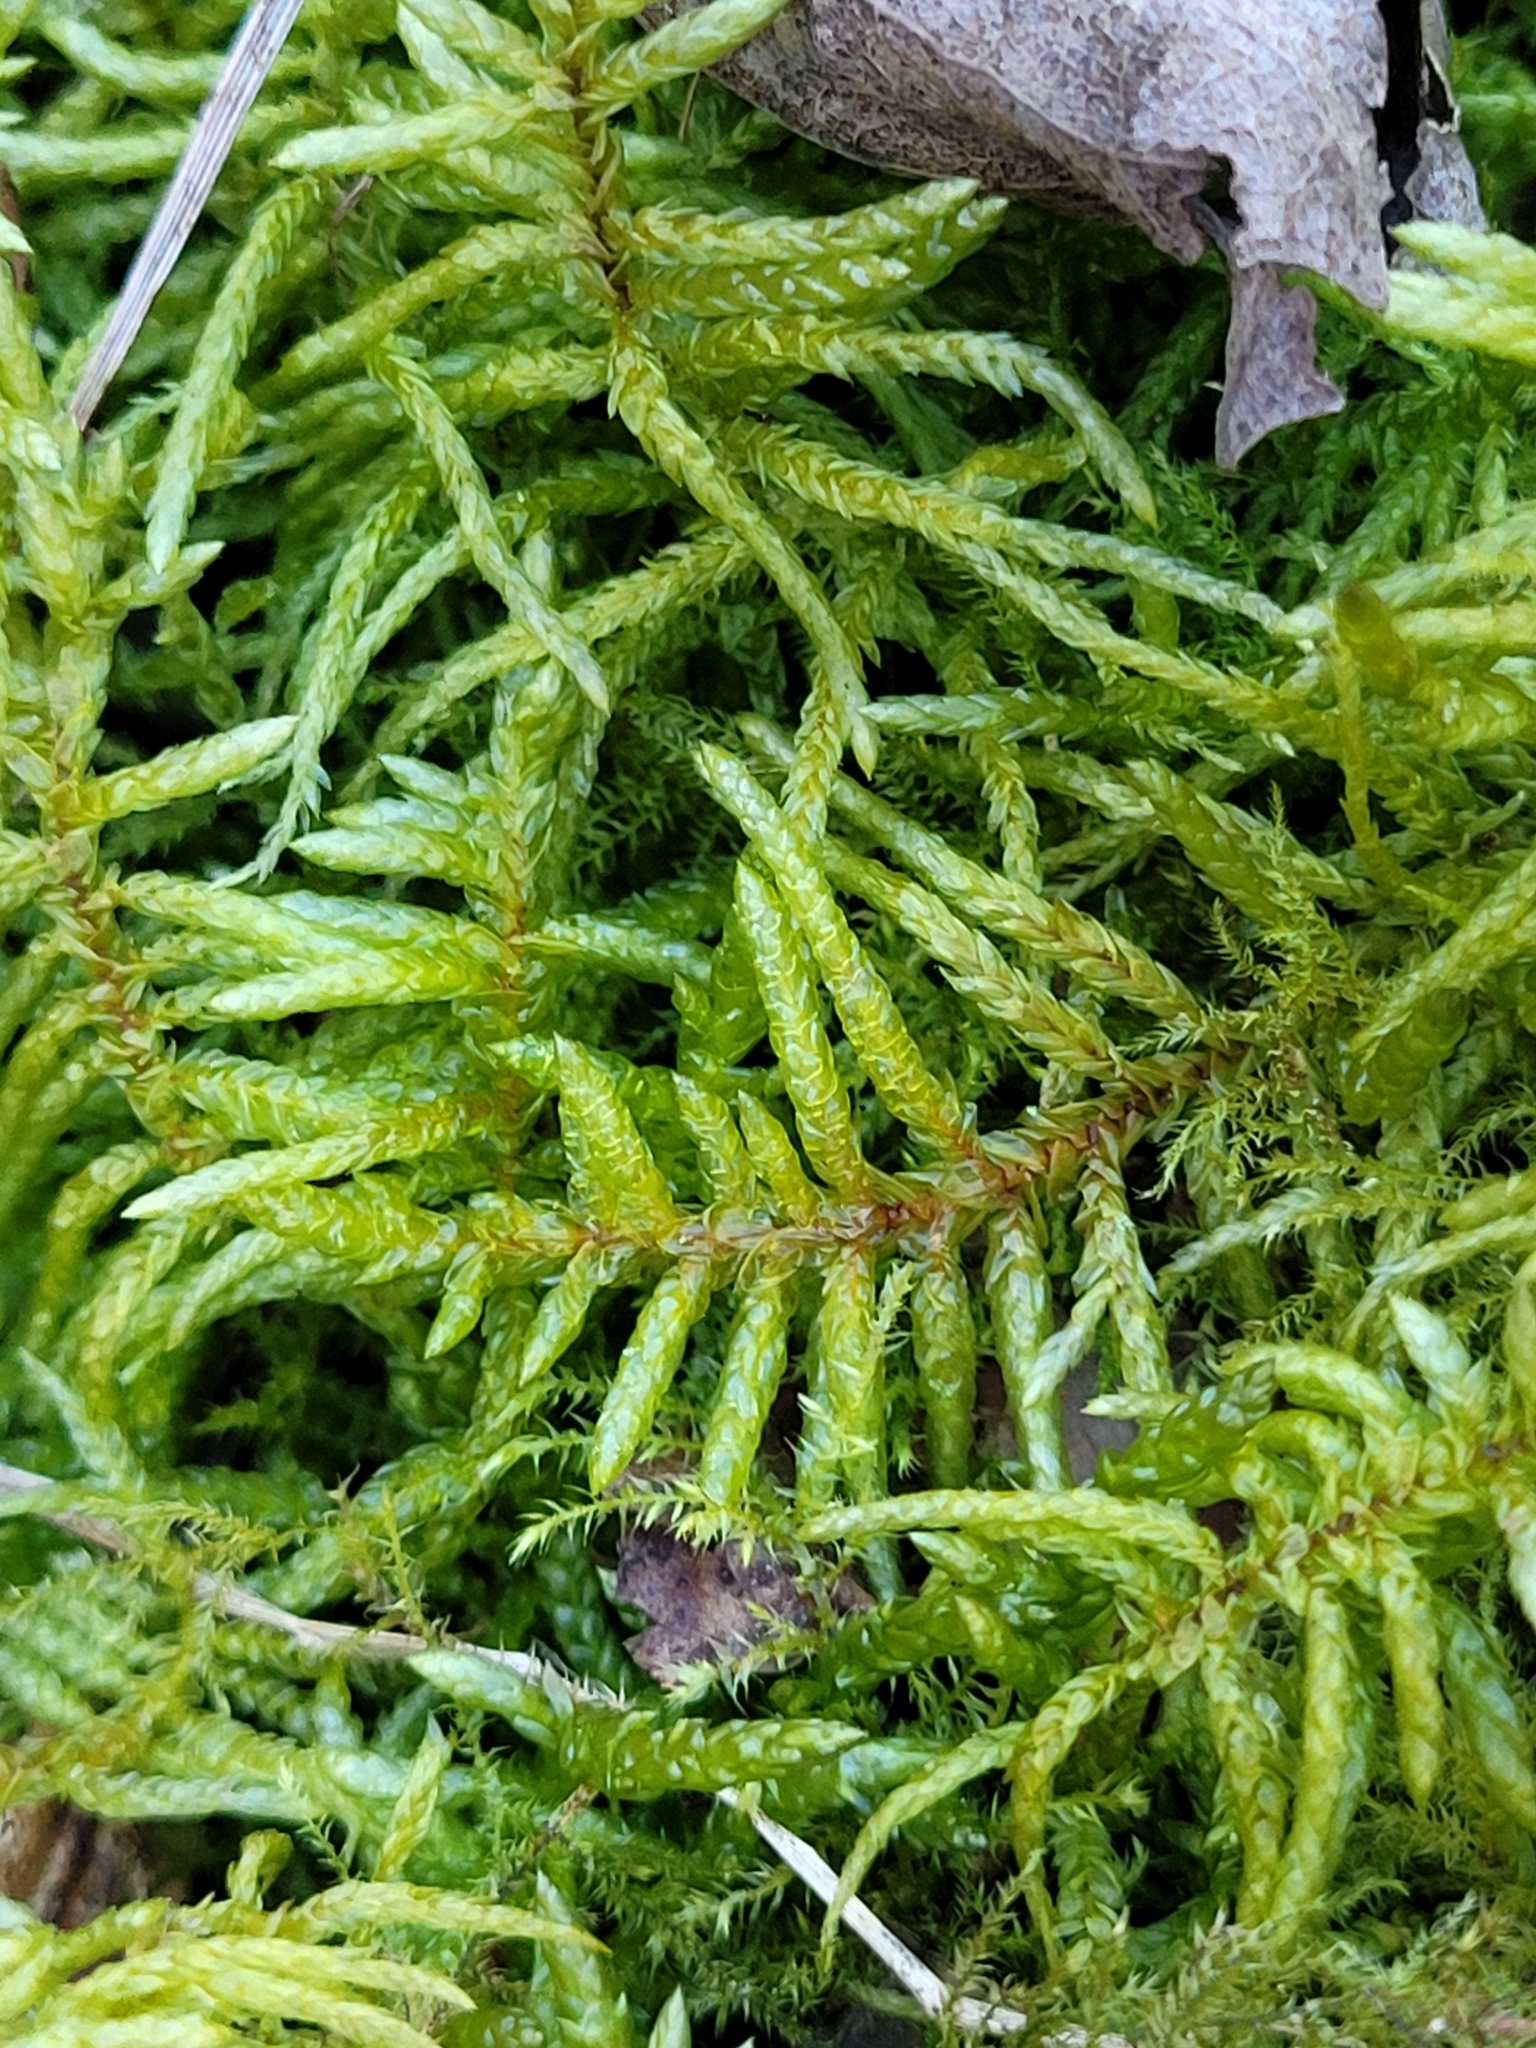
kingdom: Plantae
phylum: Bryophyta
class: Bryopsida
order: Hypnales
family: Brachytheciaceae
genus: Pseudoscleropodium
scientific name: Pseudoscleropodium purum
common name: Neat feather-moss
